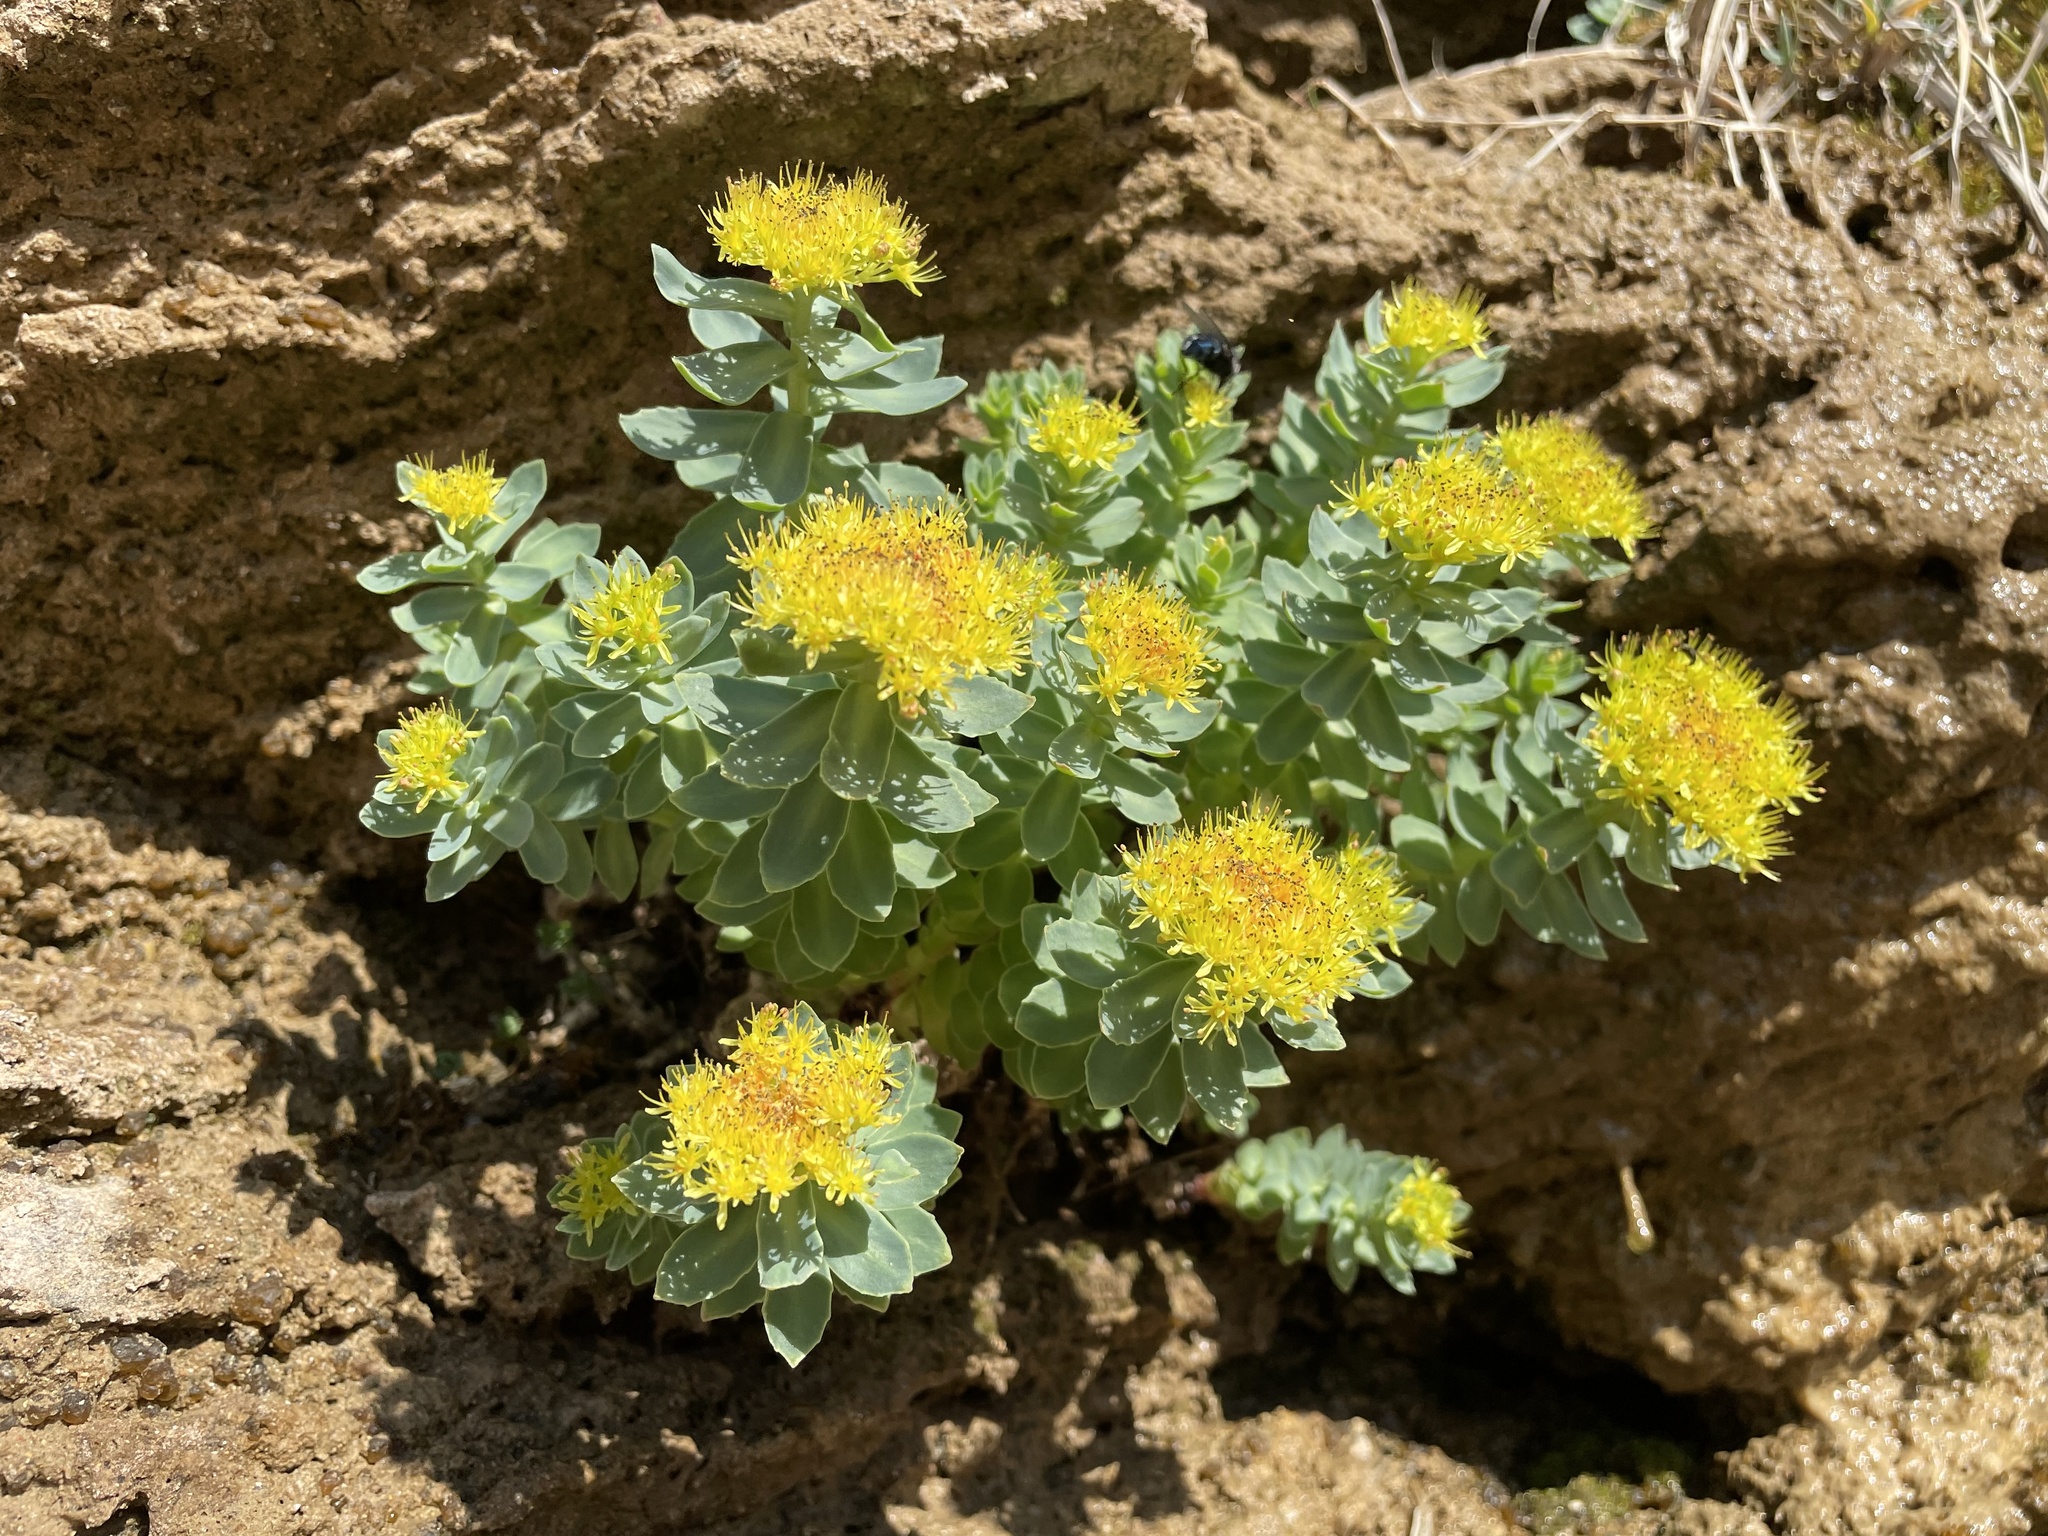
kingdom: Plantae
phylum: Tracheophyta
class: Magnoliopsida
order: Saxifragales
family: Crassulaceae
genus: Rhodiola
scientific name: Rhodiola rosea
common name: Roseroot
